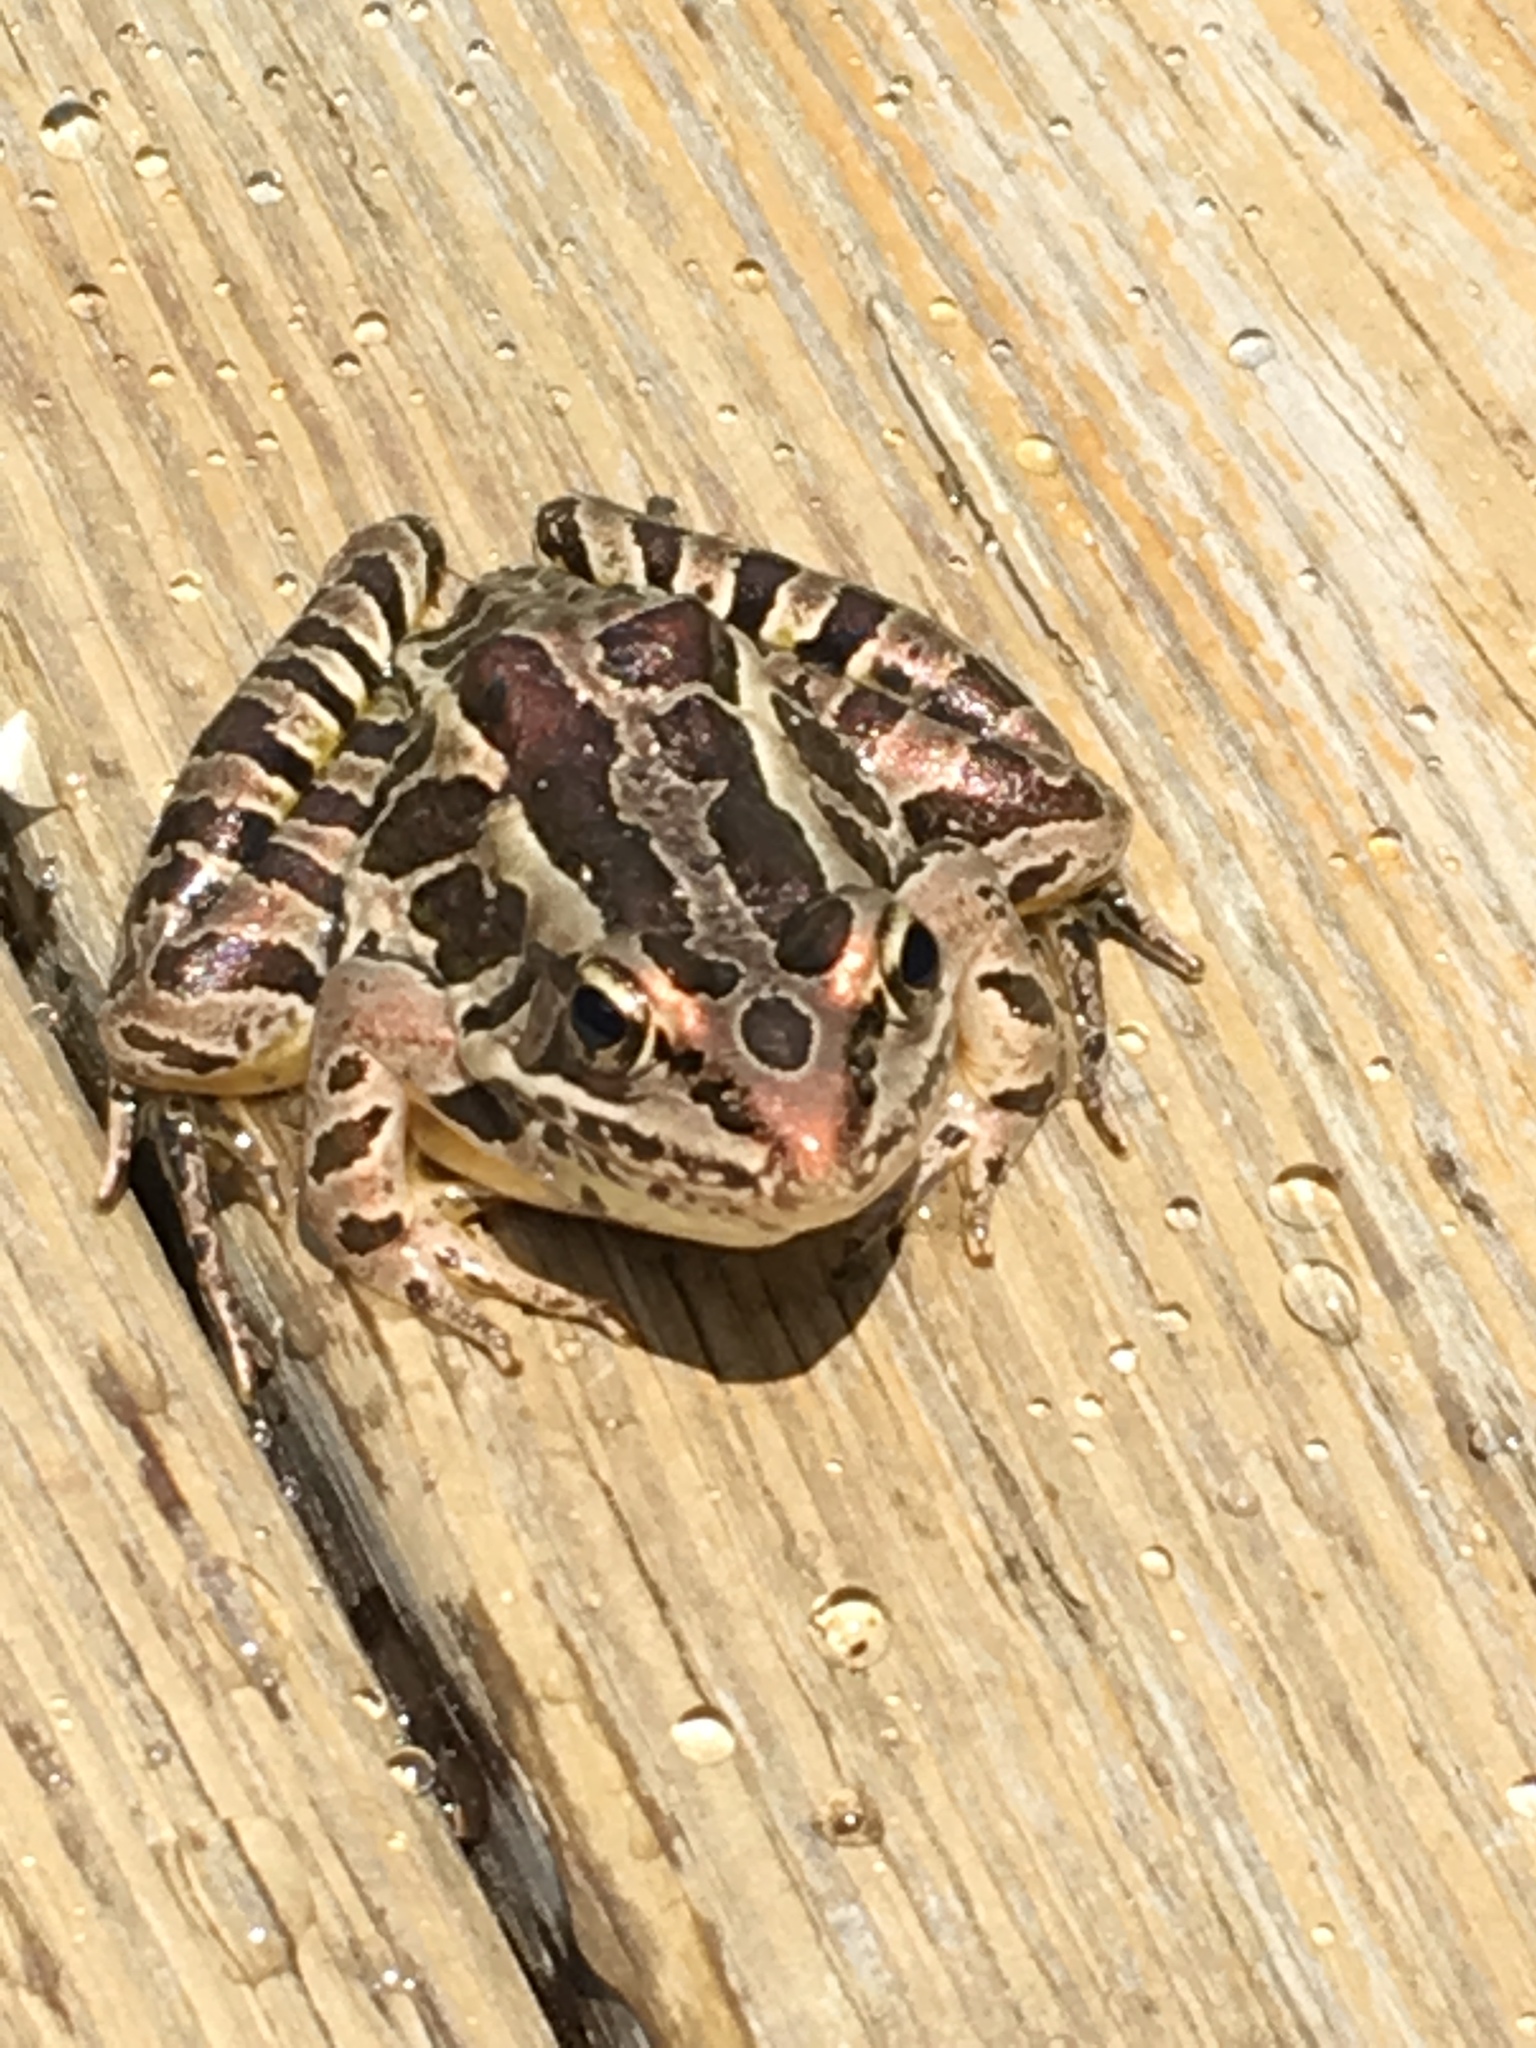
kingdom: Animalia
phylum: Chordata
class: Amphibia
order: Anura
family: Ranidae
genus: Lithobates
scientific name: Lithobates palustris
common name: Pickerel frog
